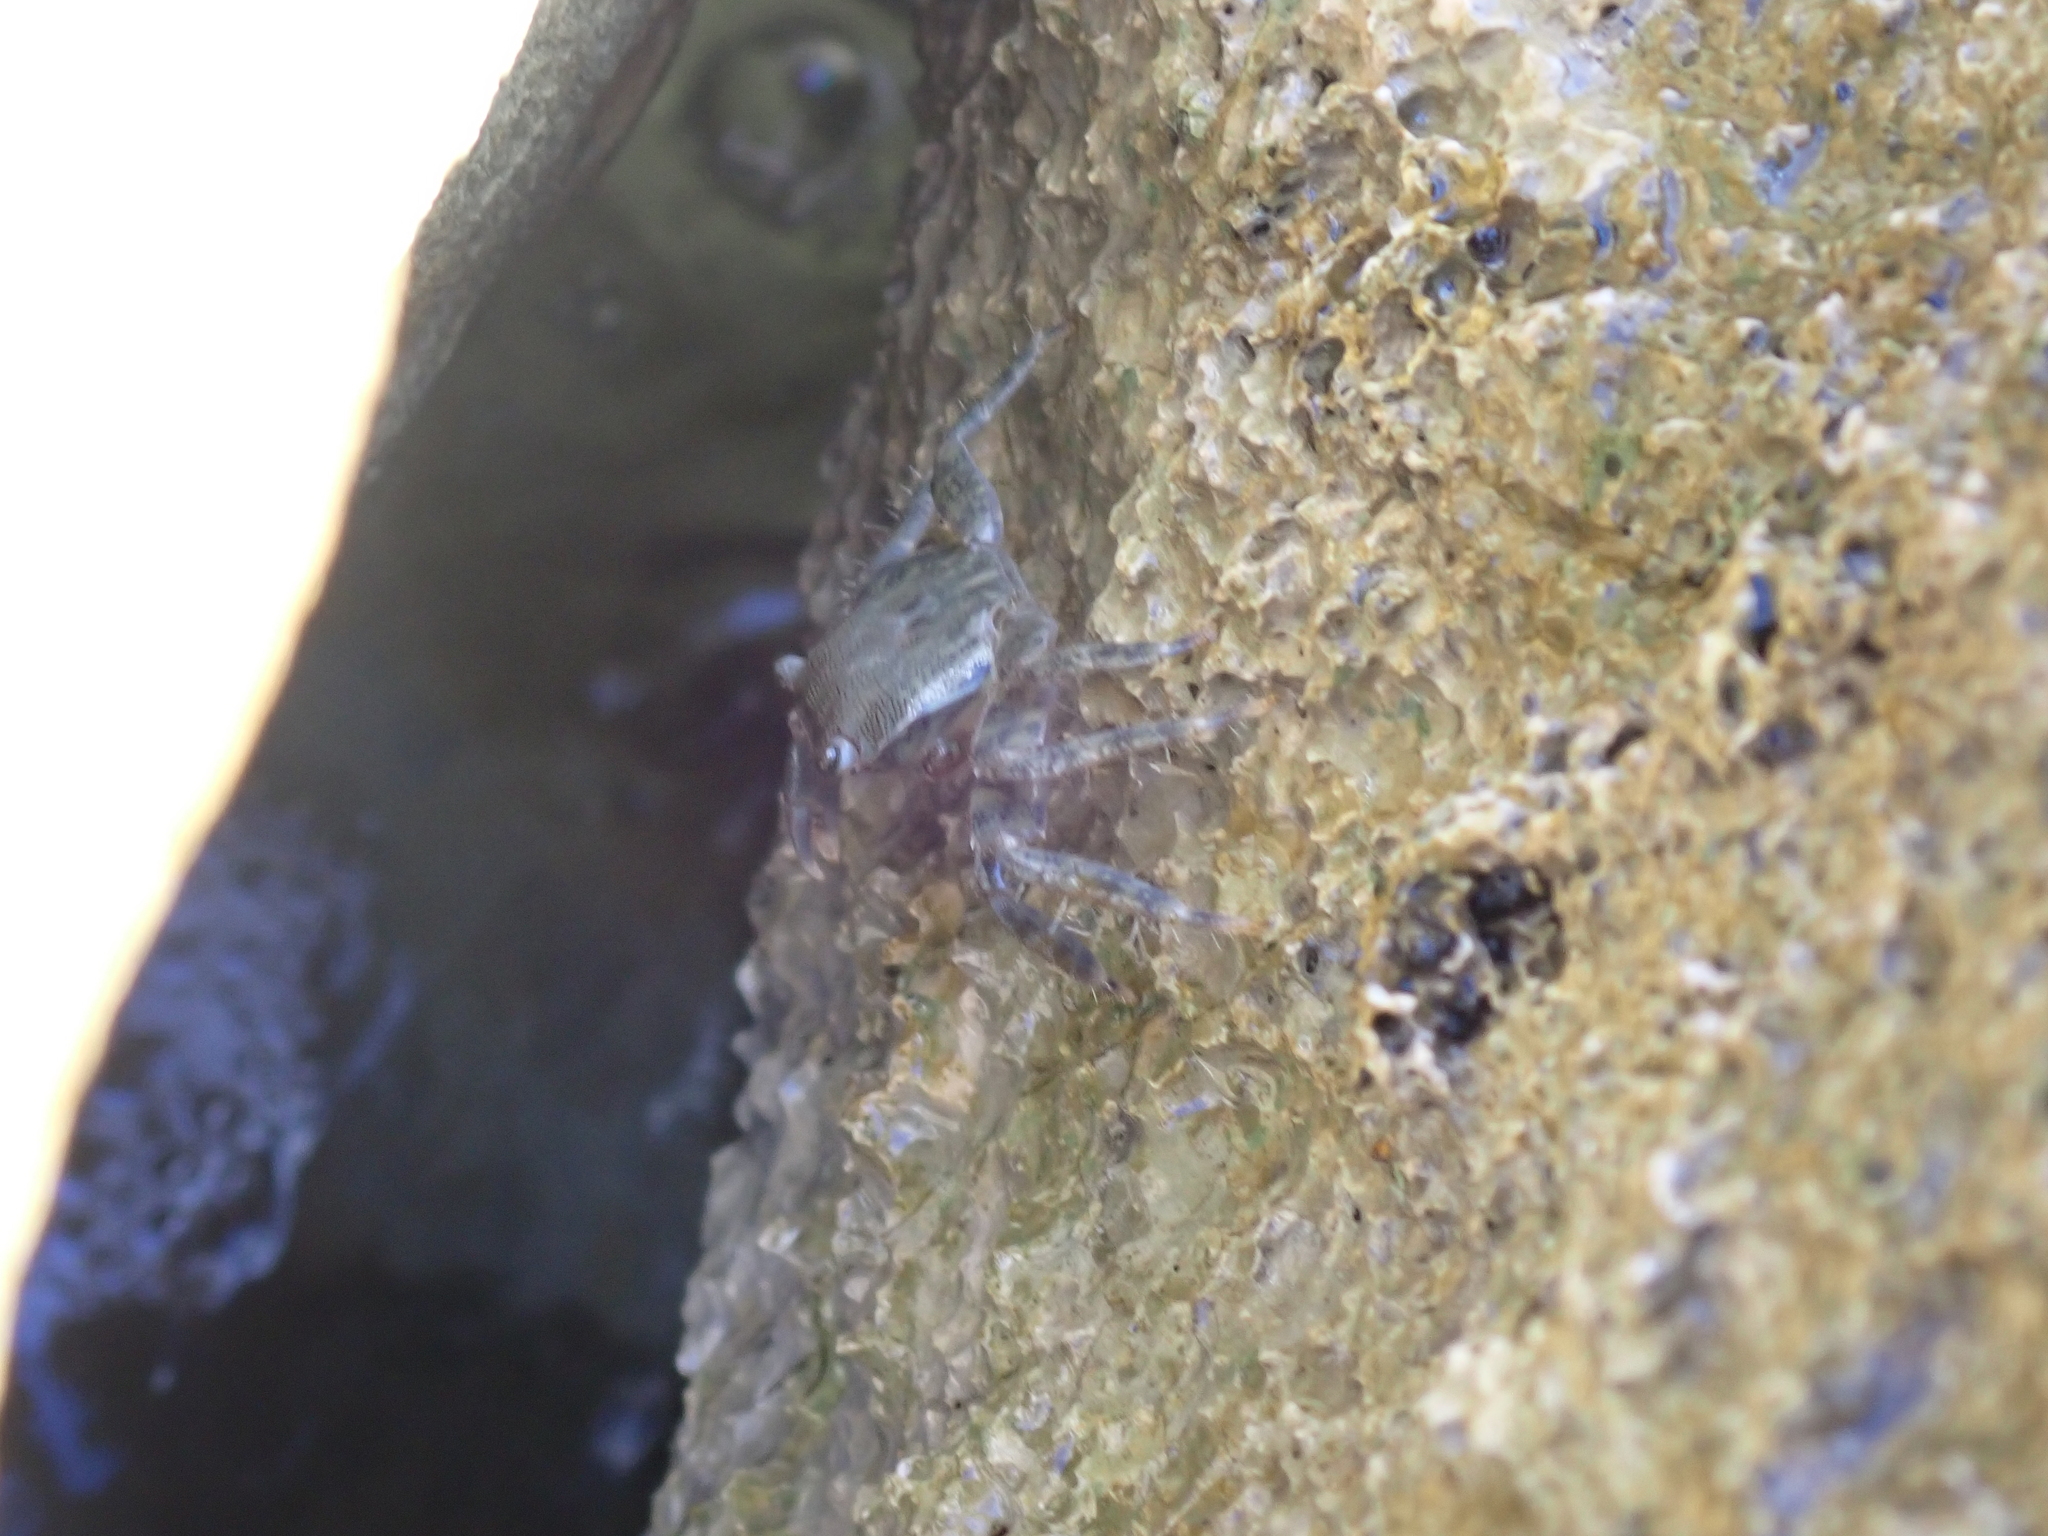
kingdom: Animalia
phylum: Arthropoda
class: Malacostraca
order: Decapoda
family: Grapsidae
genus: Pachygrapsus
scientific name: Pachygrapsus marmoratus
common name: Marbled rock crab
